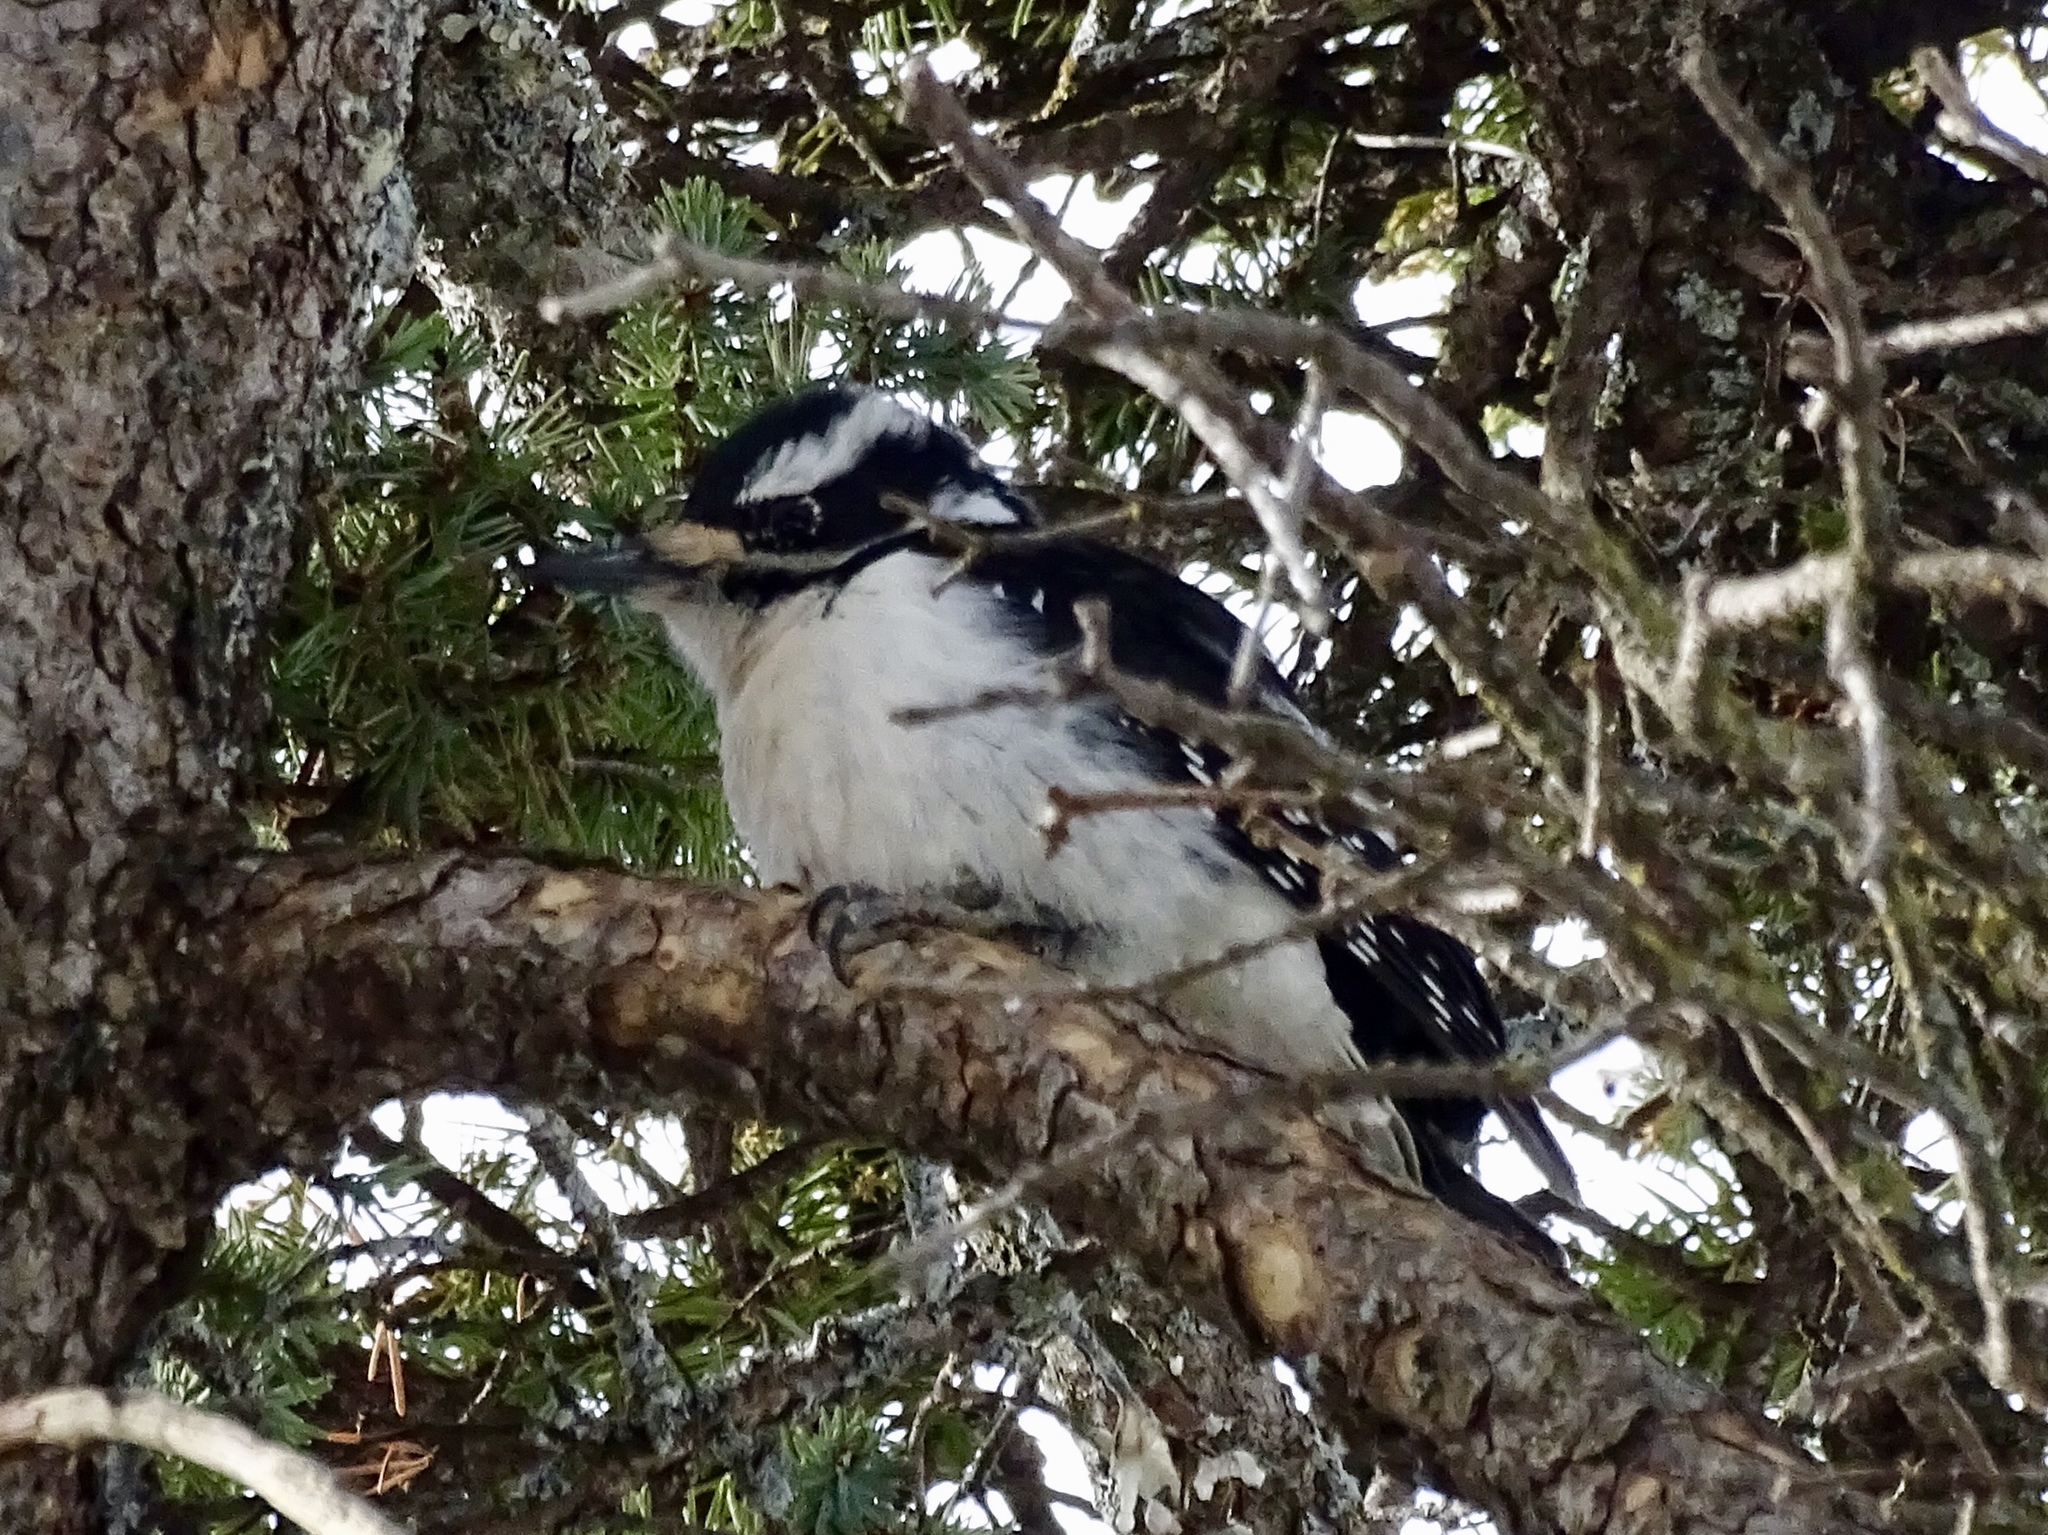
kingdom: Animalia
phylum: Chordata
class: Aves
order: Piciformes
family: Picidae
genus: Leuconotopicus
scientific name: Leuconotopicus villosus
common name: Hairy woodpecker
